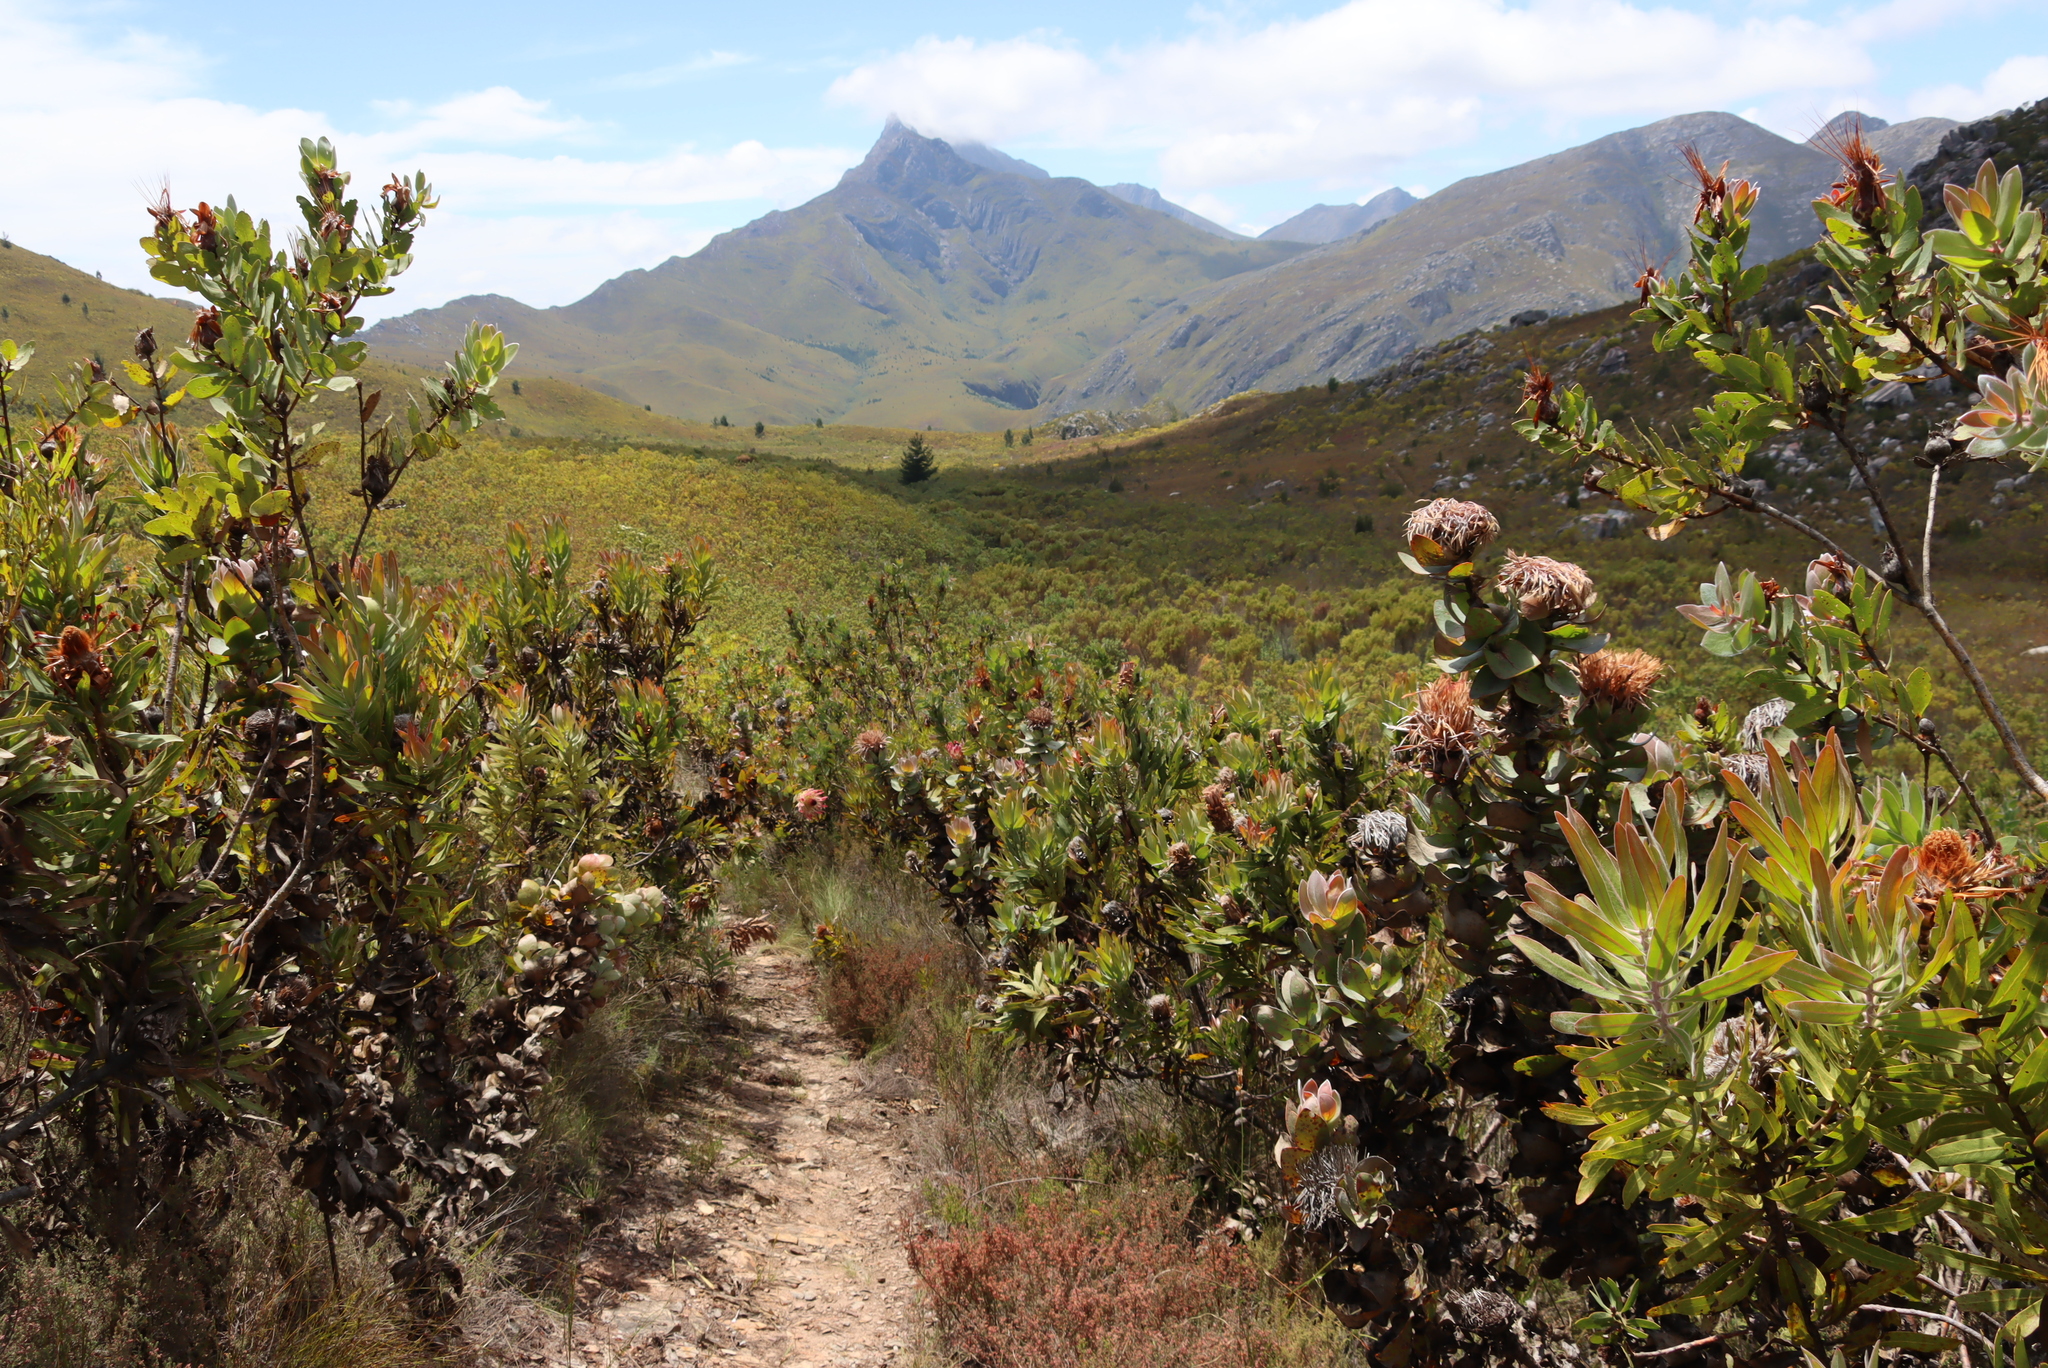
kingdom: Plantae
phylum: Tracheophyta
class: Magnoliopsida
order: Proteales
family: Proteaceae
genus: Protea
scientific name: Protea eximia
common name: Broad-leaved sugarbush
